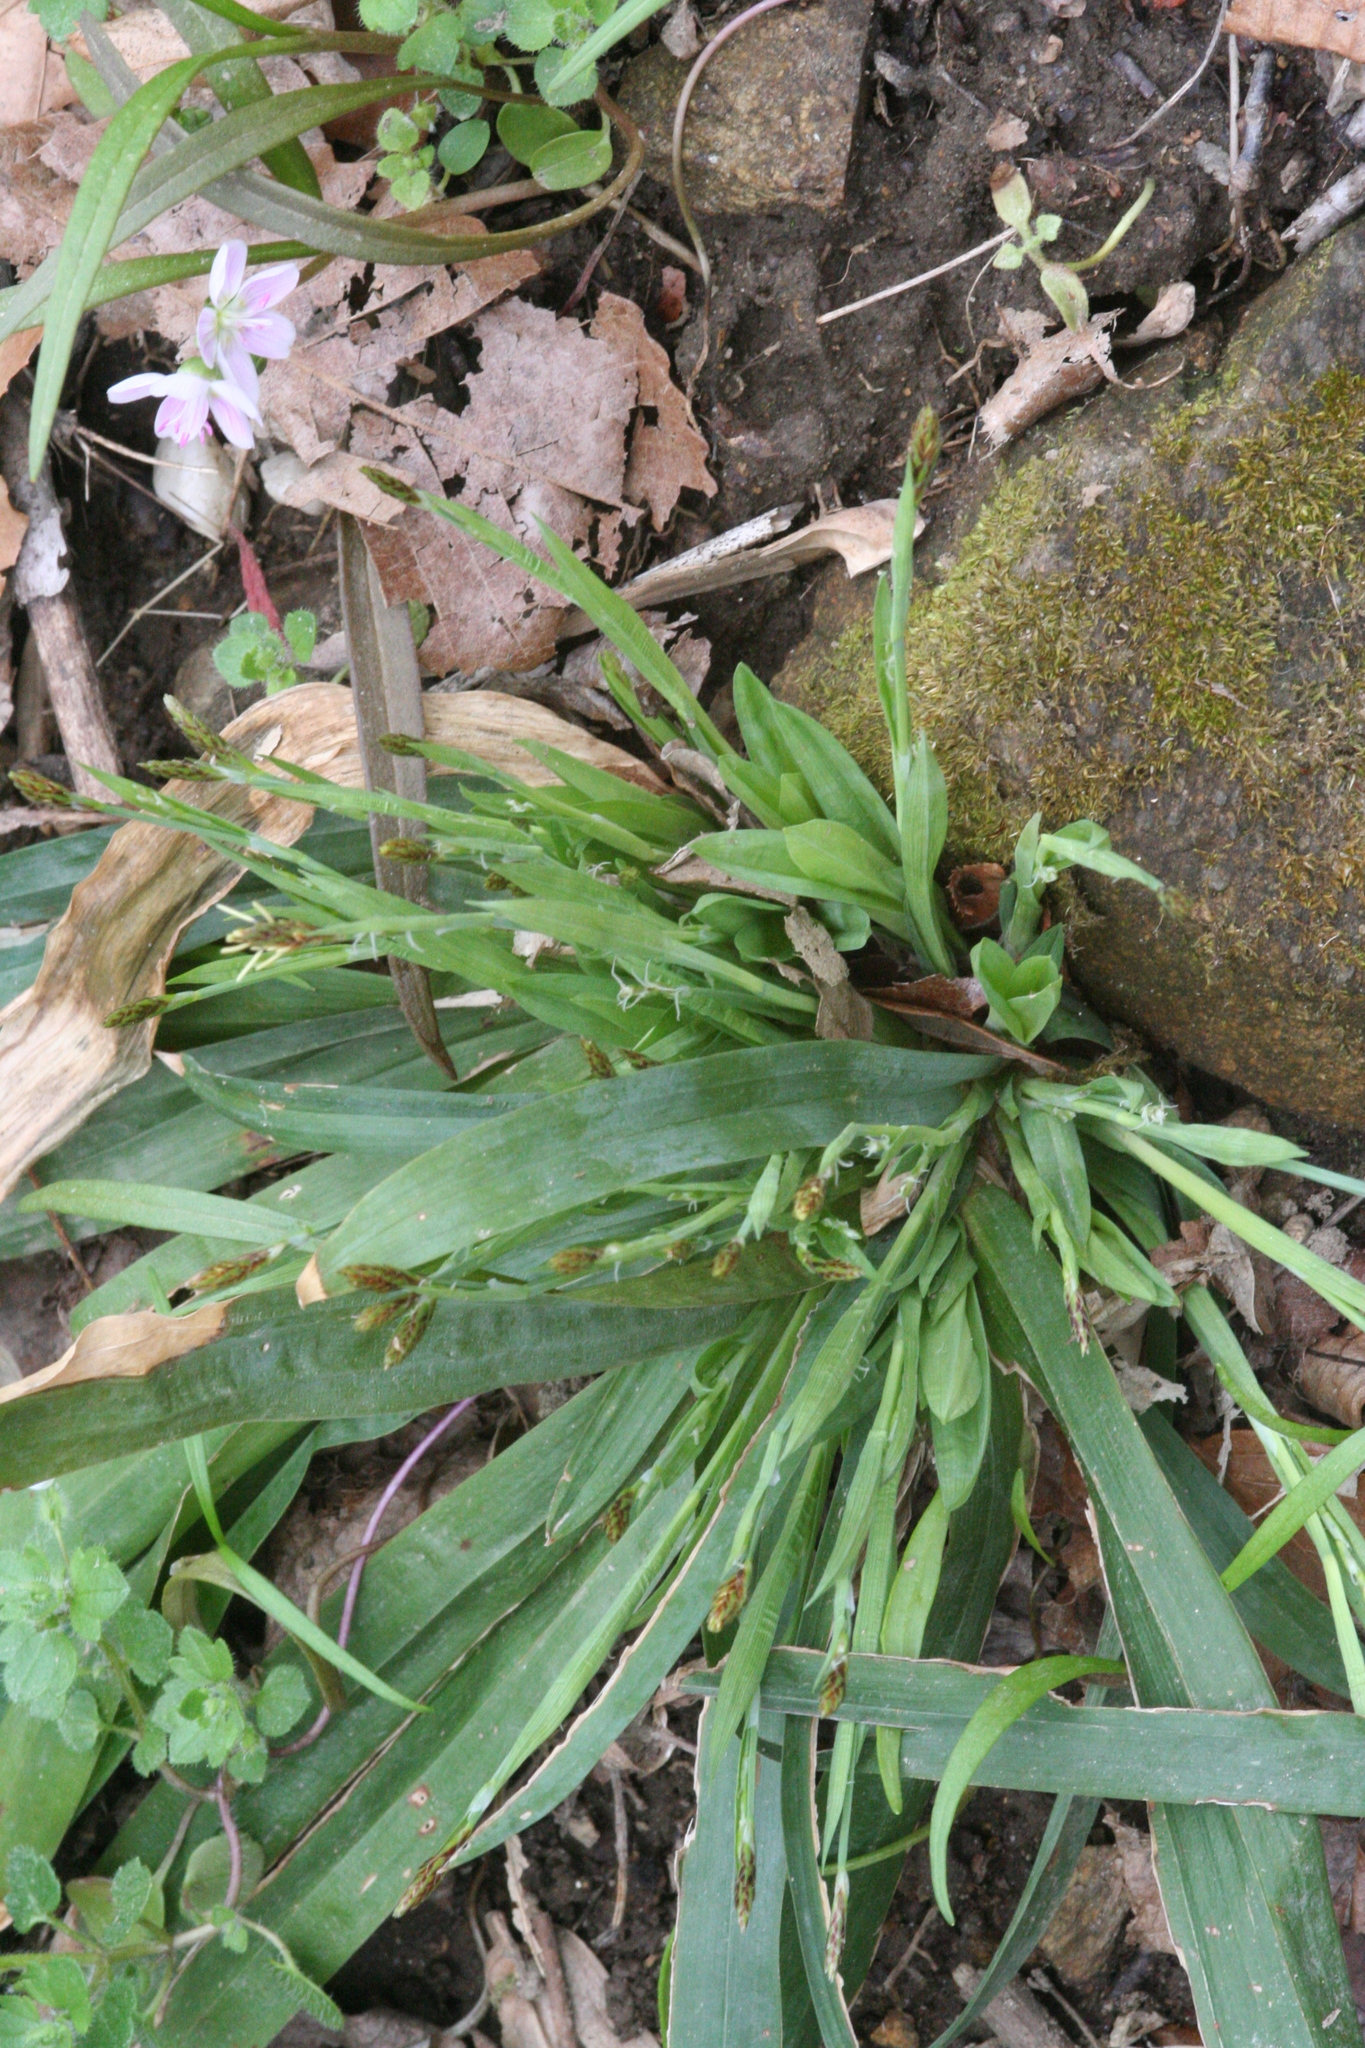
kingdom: Plantae
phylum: Tracheophyta
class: Liliopsida
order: Poales
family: Cyperaceae
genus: Carex
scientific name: Carex platyphylla
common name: Broad-leaved sedge
